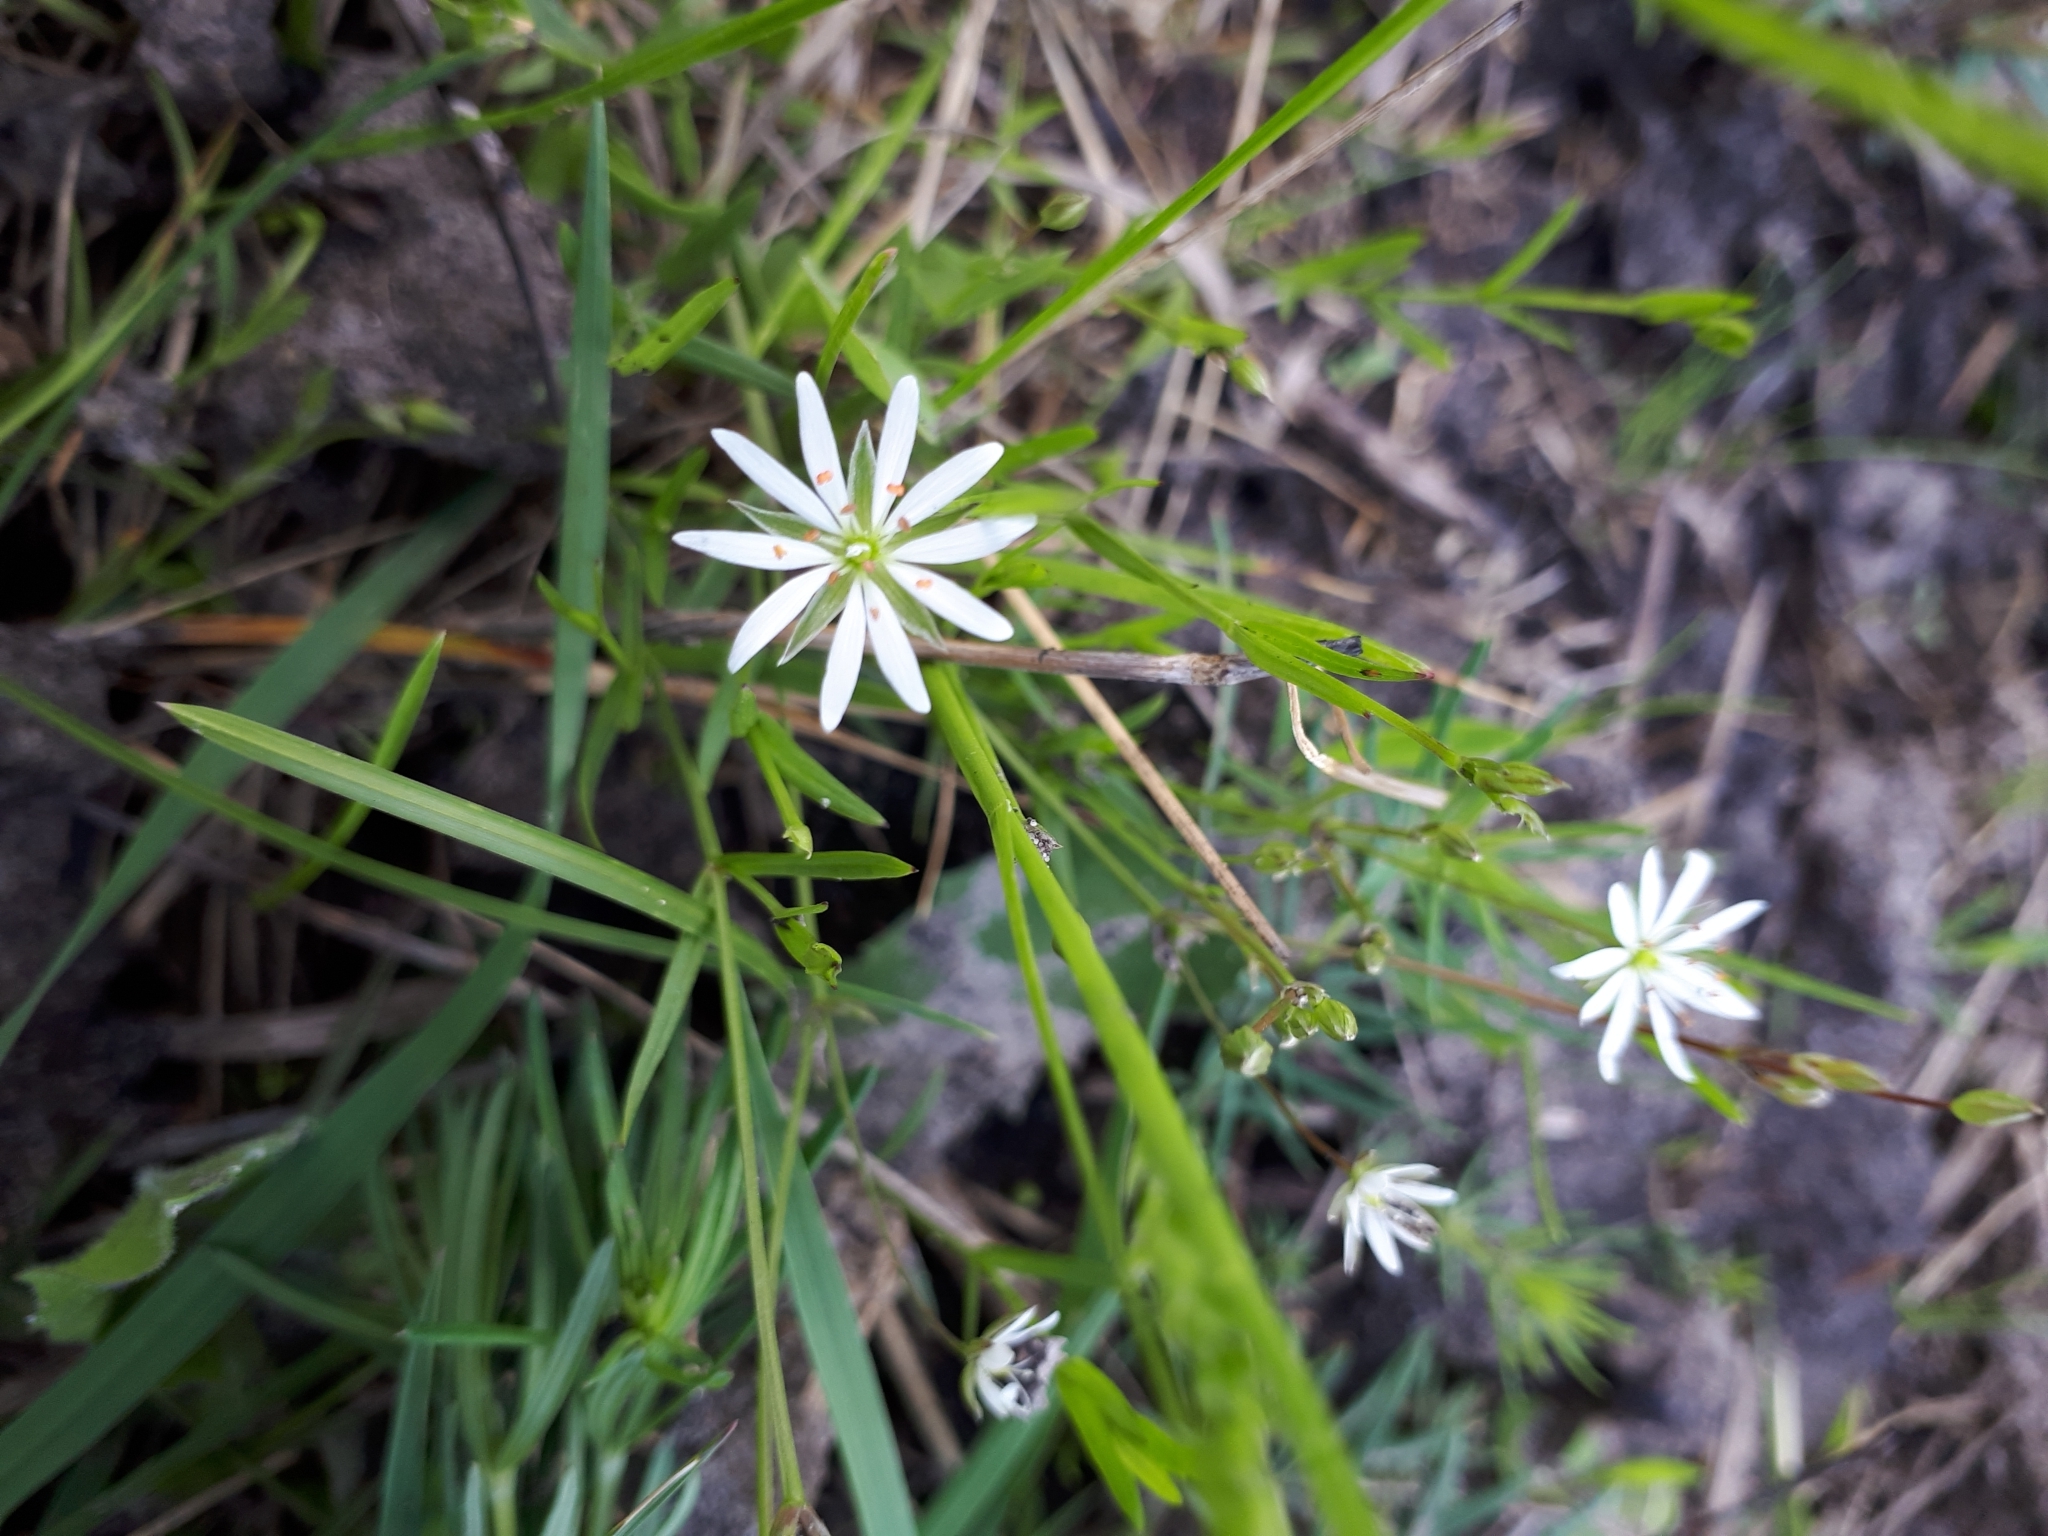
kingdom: Plantae
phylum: Tracheophyta
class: Magnoliopsida
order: Caryophyllales
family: Caryophyllaceae
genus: Stellaria
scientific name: Stellaria graminea
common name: Grass-like starwort
